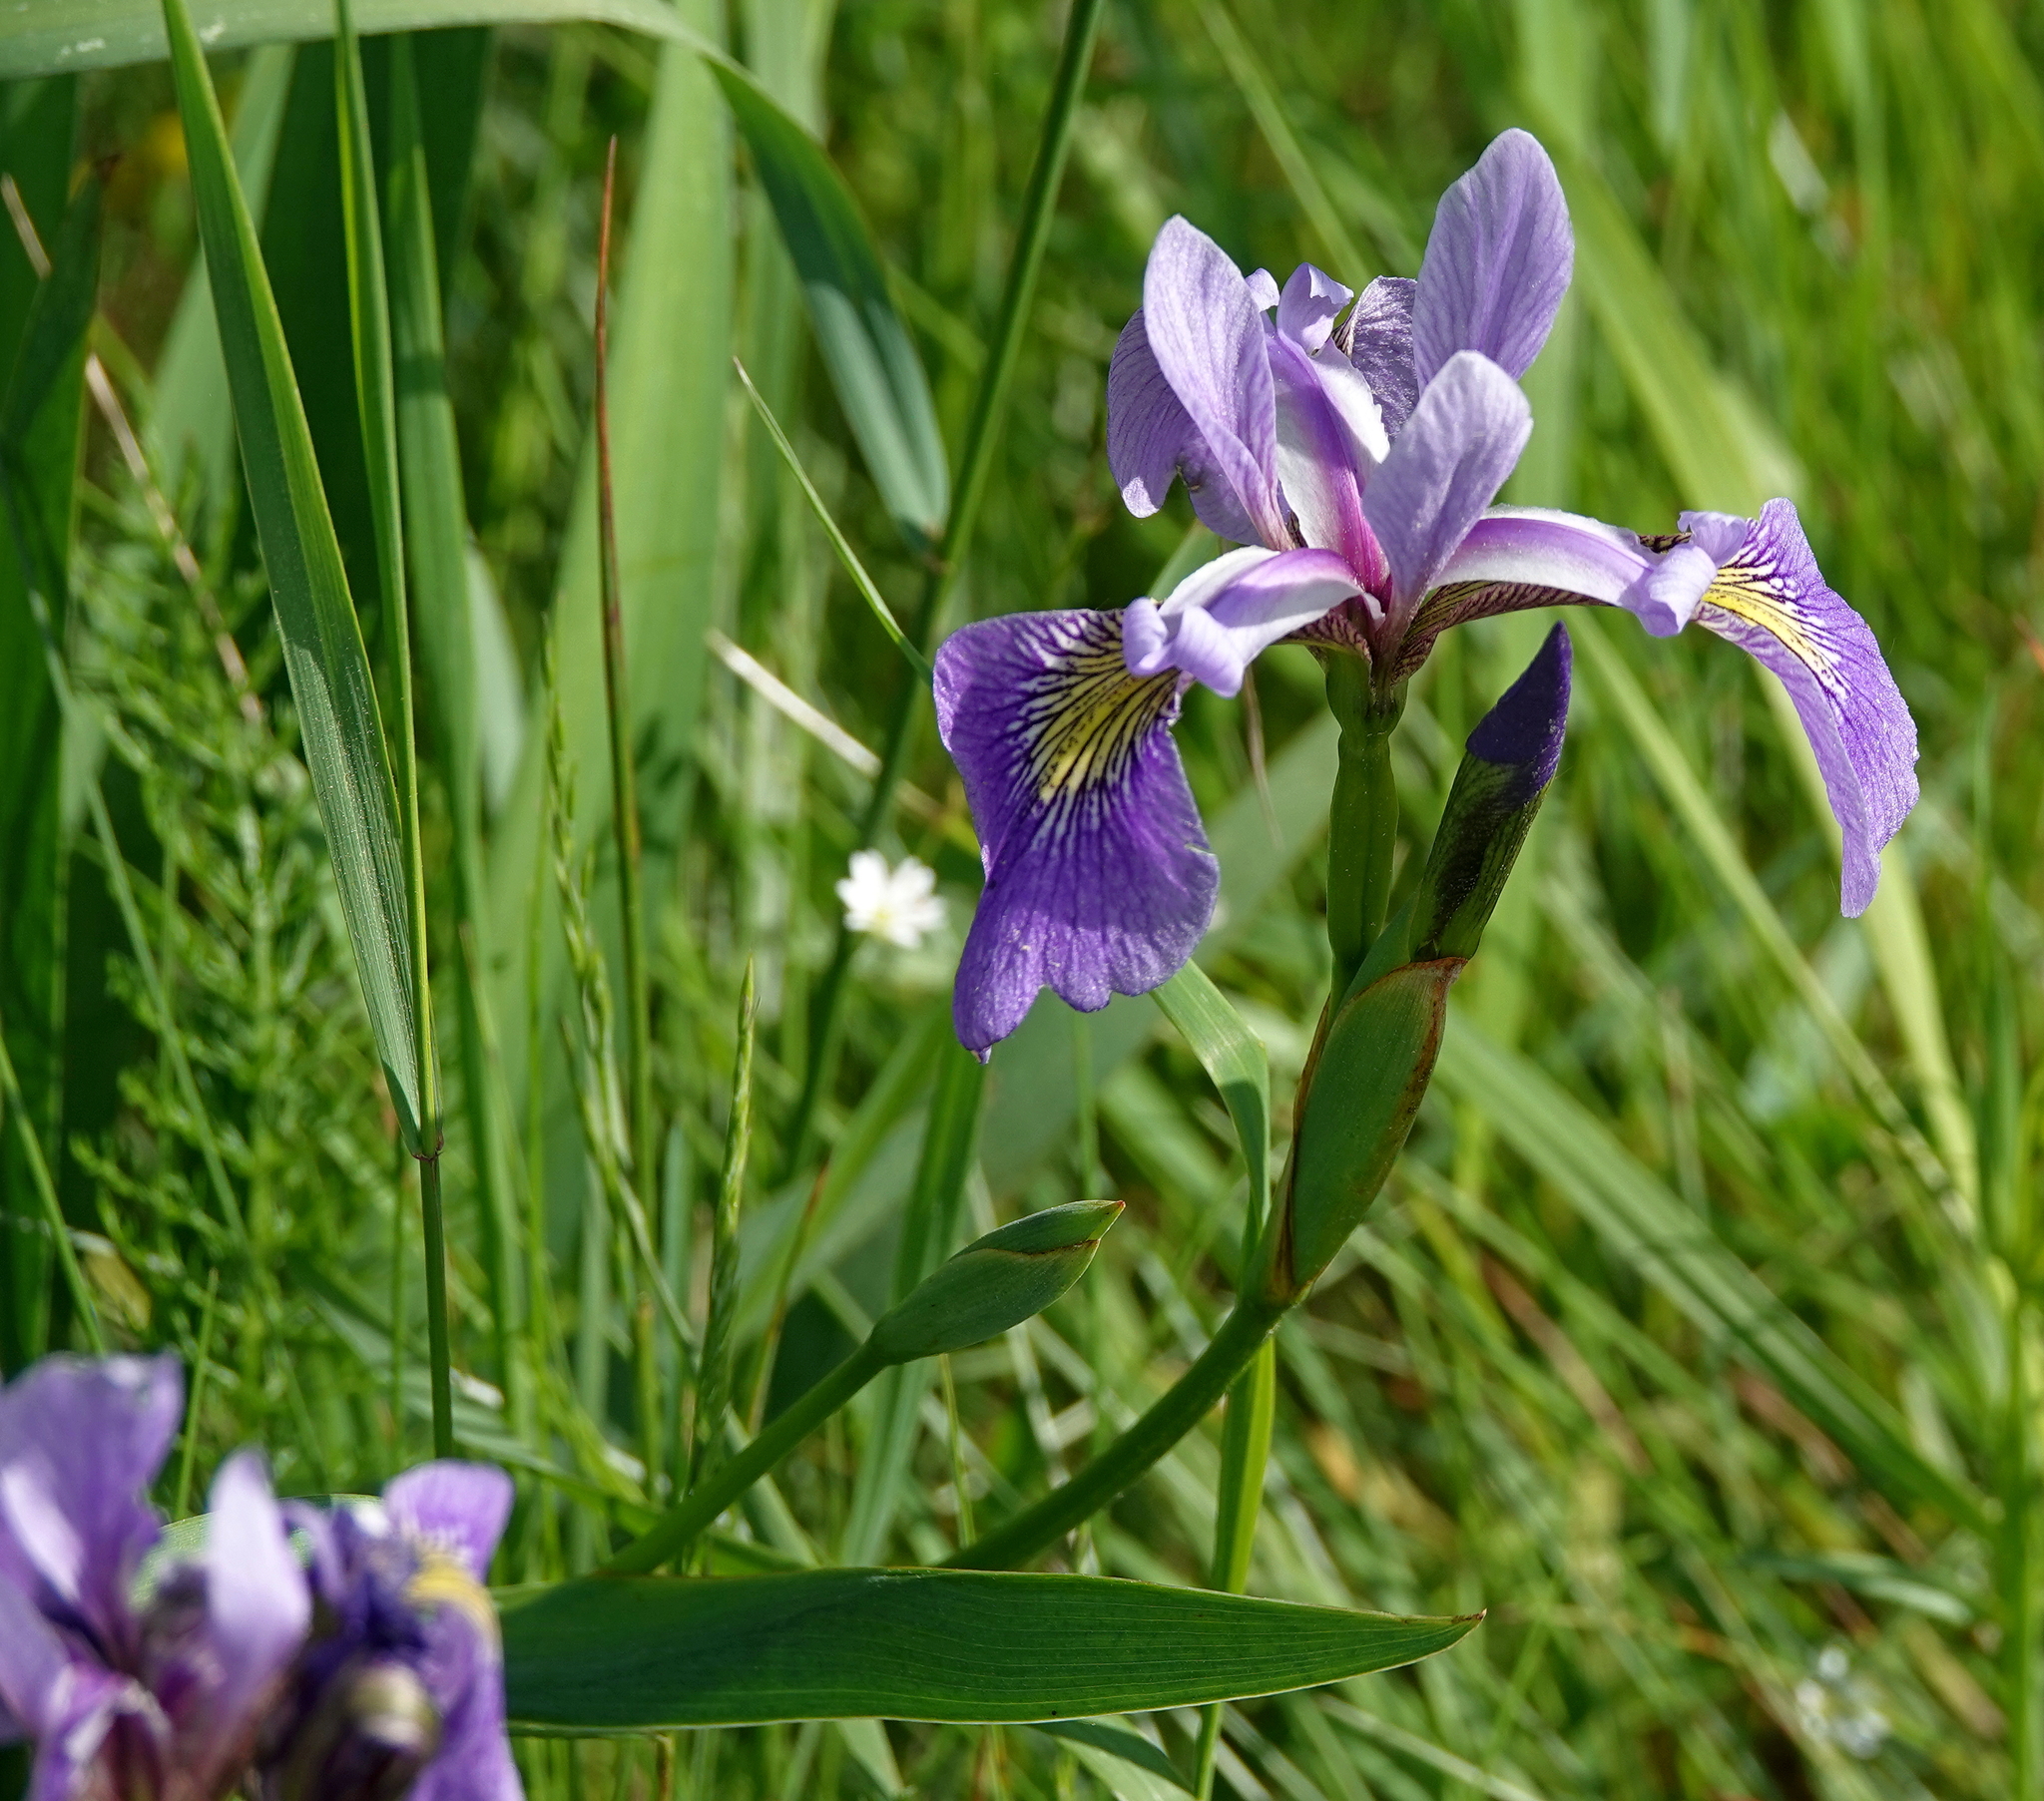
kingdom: Plantae
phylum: Tracheophyta
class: Liliopsida
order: Asparagales
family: Iridaceae
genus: Iris
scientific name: Iris versicolor
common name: Purple iris
